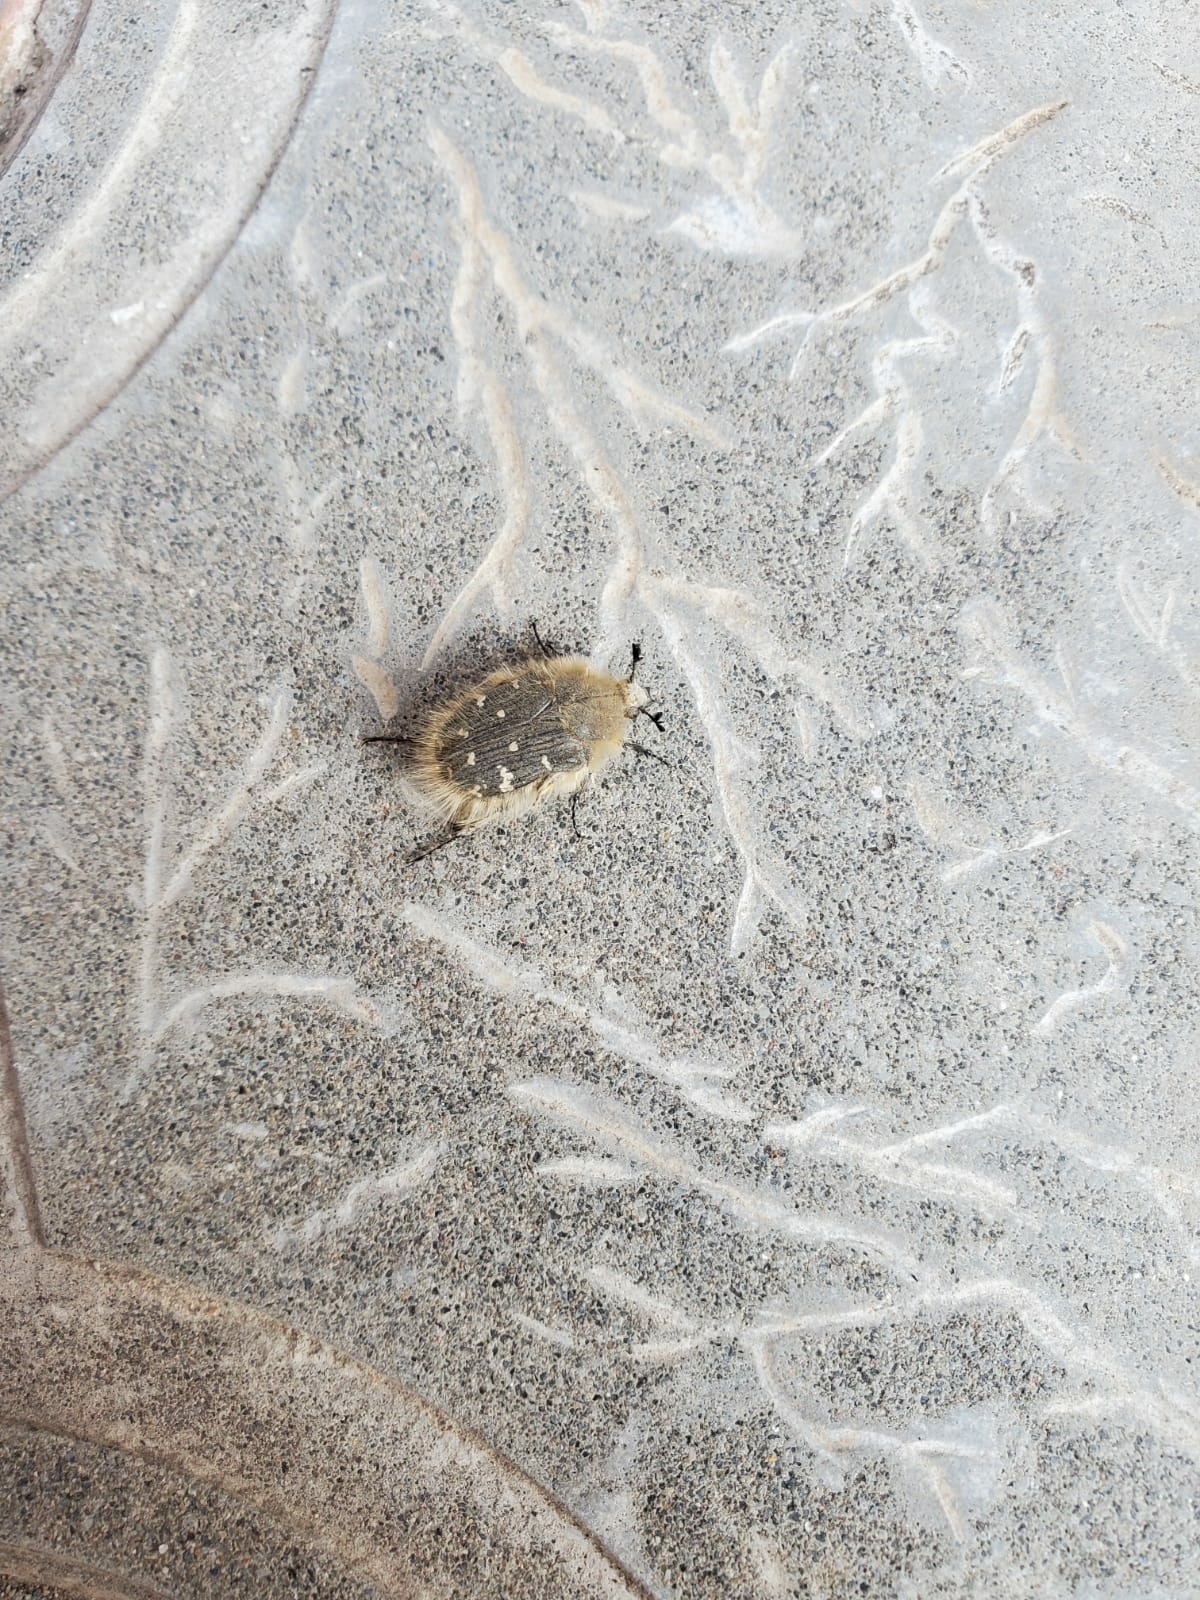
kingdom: Animalia
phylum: Arthropoda
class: Insecta
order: Coleoptera
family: Scarabaeidae
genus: Tropinota
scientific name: Tropinota hirta
